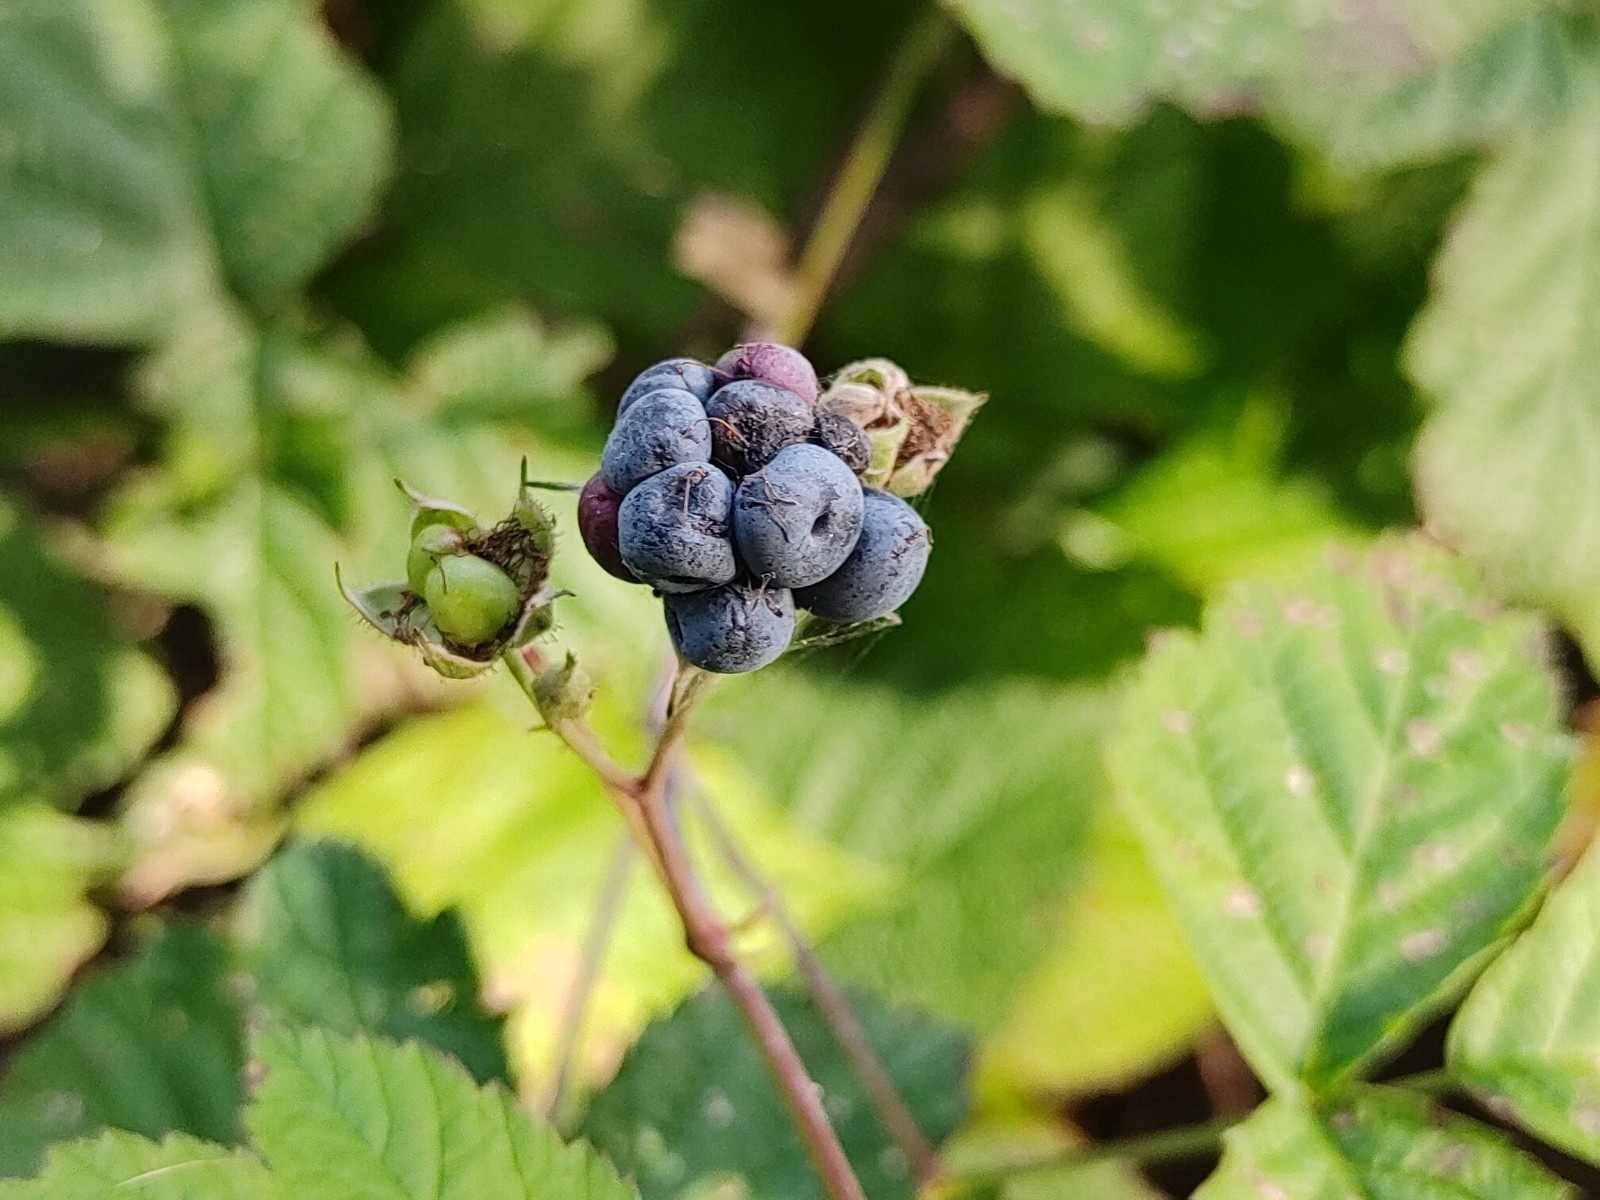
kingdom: Plantae
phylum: Tracheophyta
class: Magnoliopsida
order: Rosales
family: Rosaceae
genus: Rubus
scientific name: Rubus caesius
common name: Dewberry
